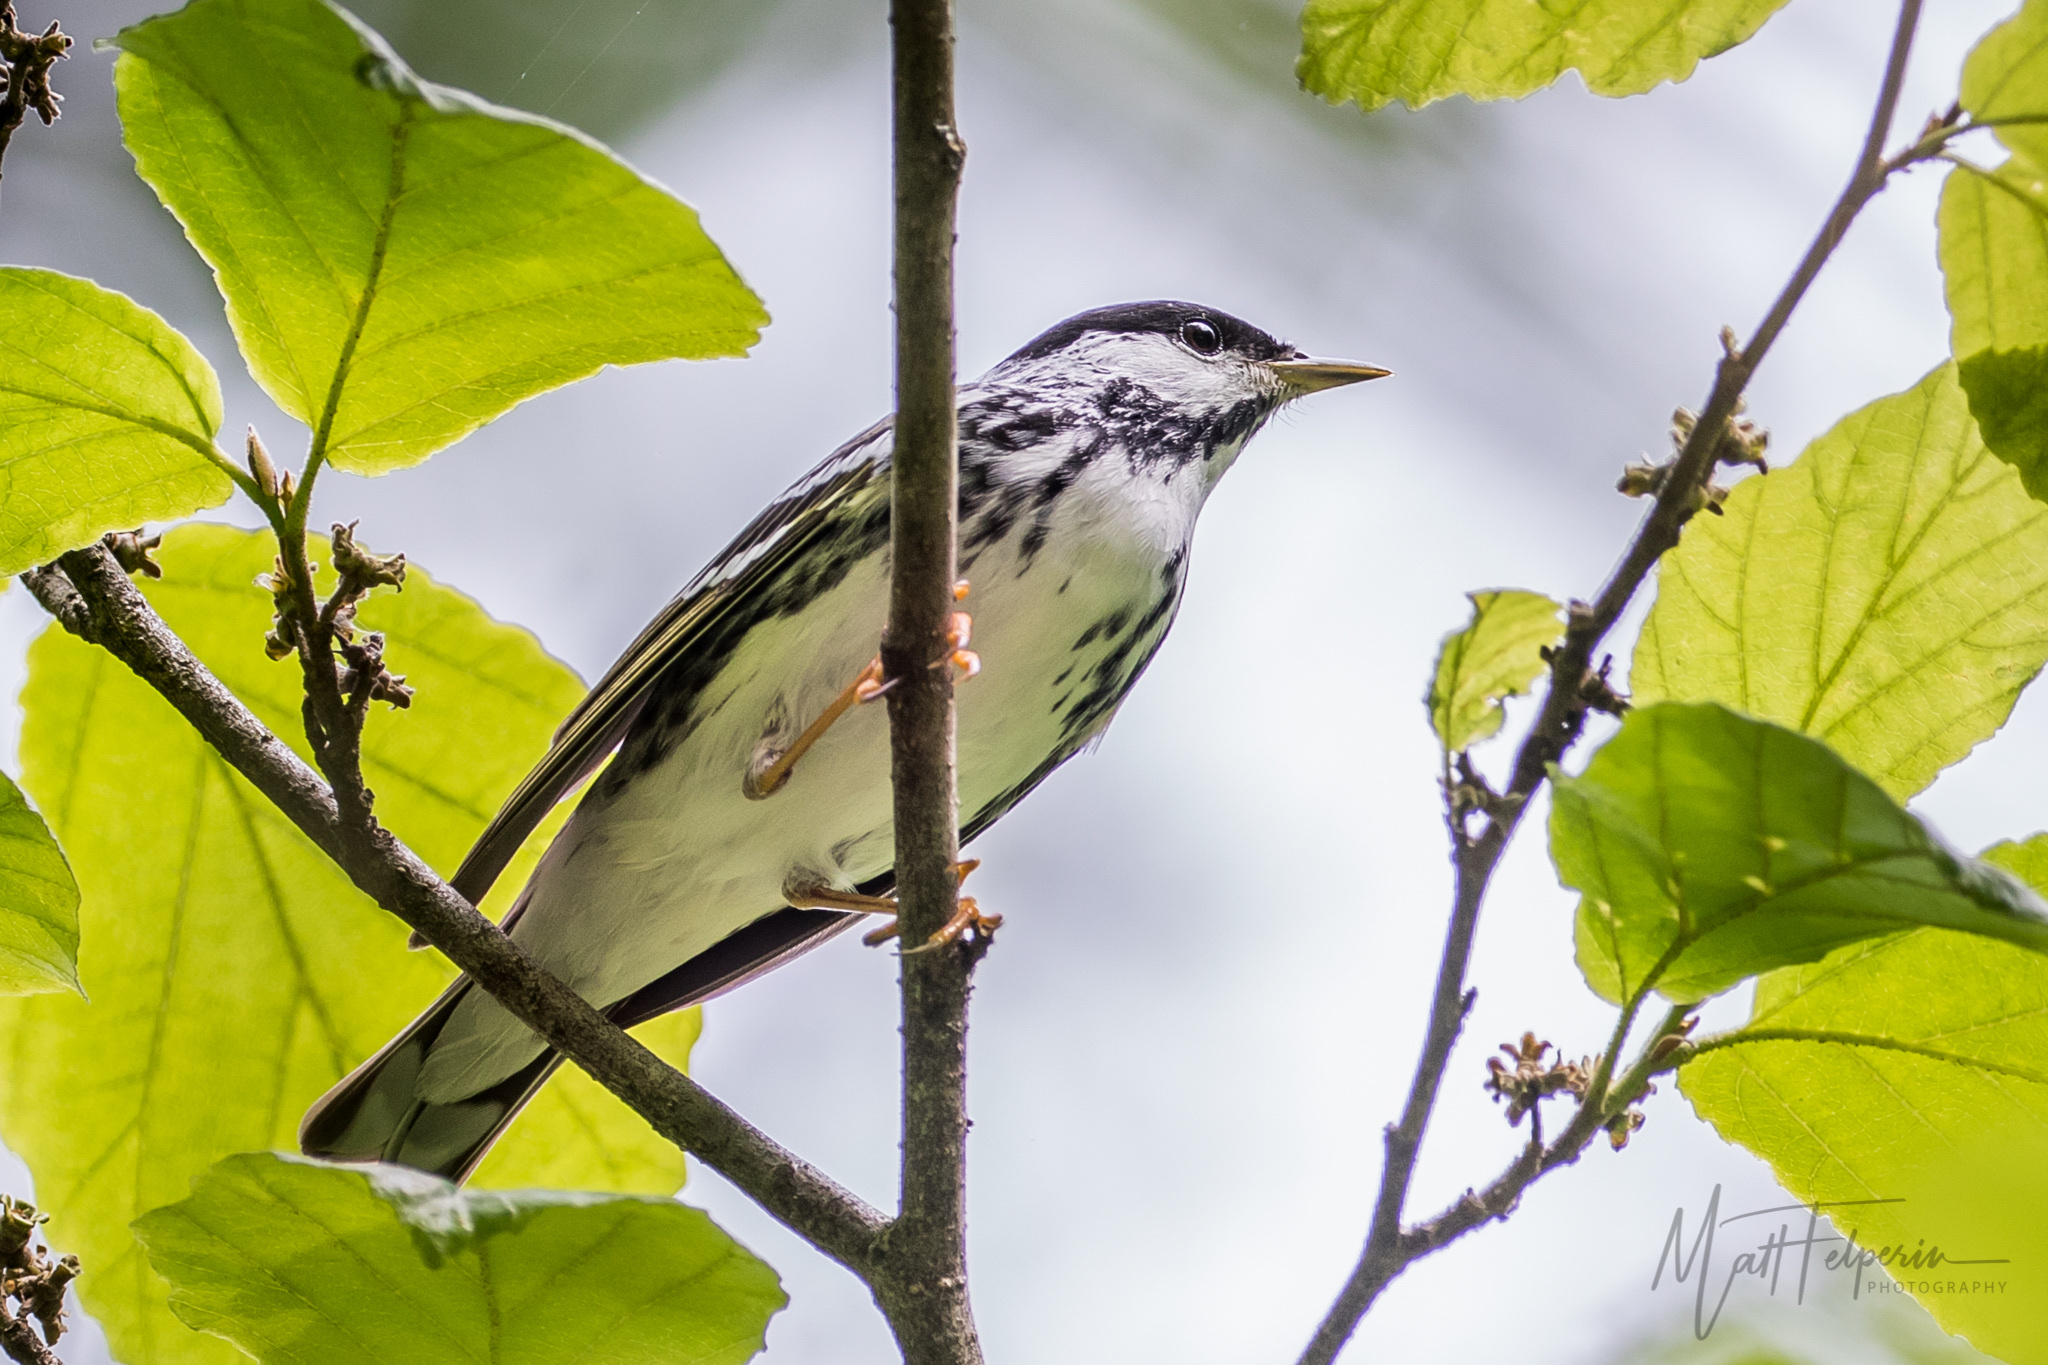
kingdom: Animalia
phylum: Chordata
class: Aves
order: Passeriformes
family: Parulidae
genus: Setophaga
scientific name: Setophaga striata
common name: Blackpoll warbler
